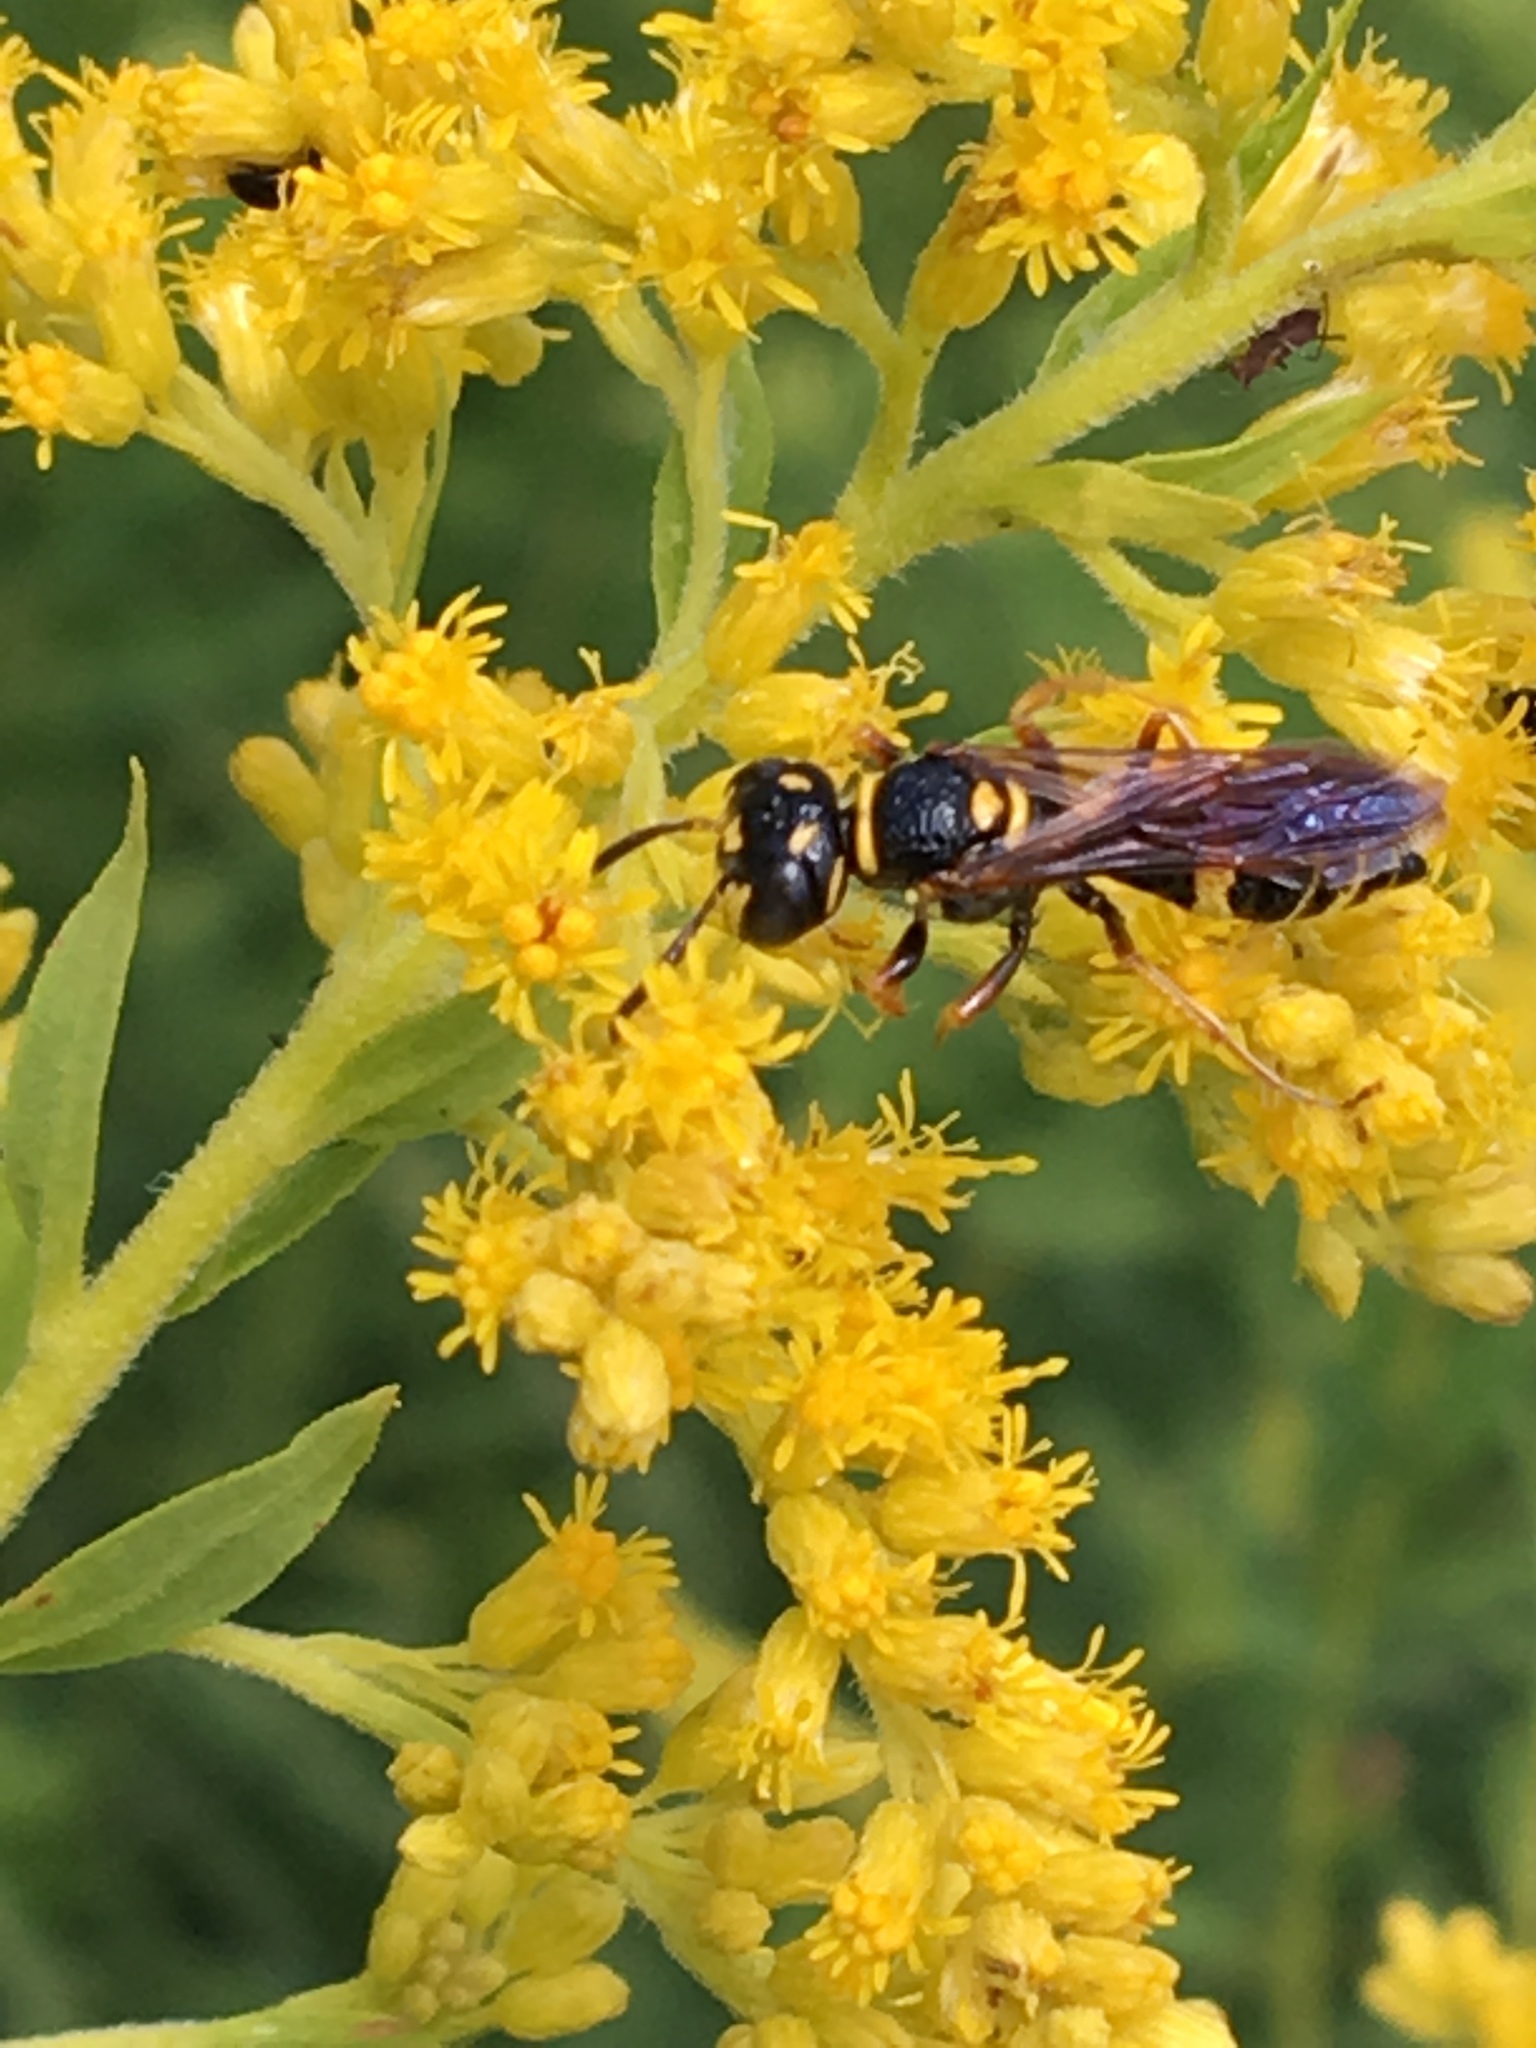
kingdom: Animalia
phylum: Arthropoda
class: Insecta
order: Hymenoptera
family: Crabronidae
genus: Philanthus
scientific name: Philanthus gibbosus
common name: Humped beewolf
